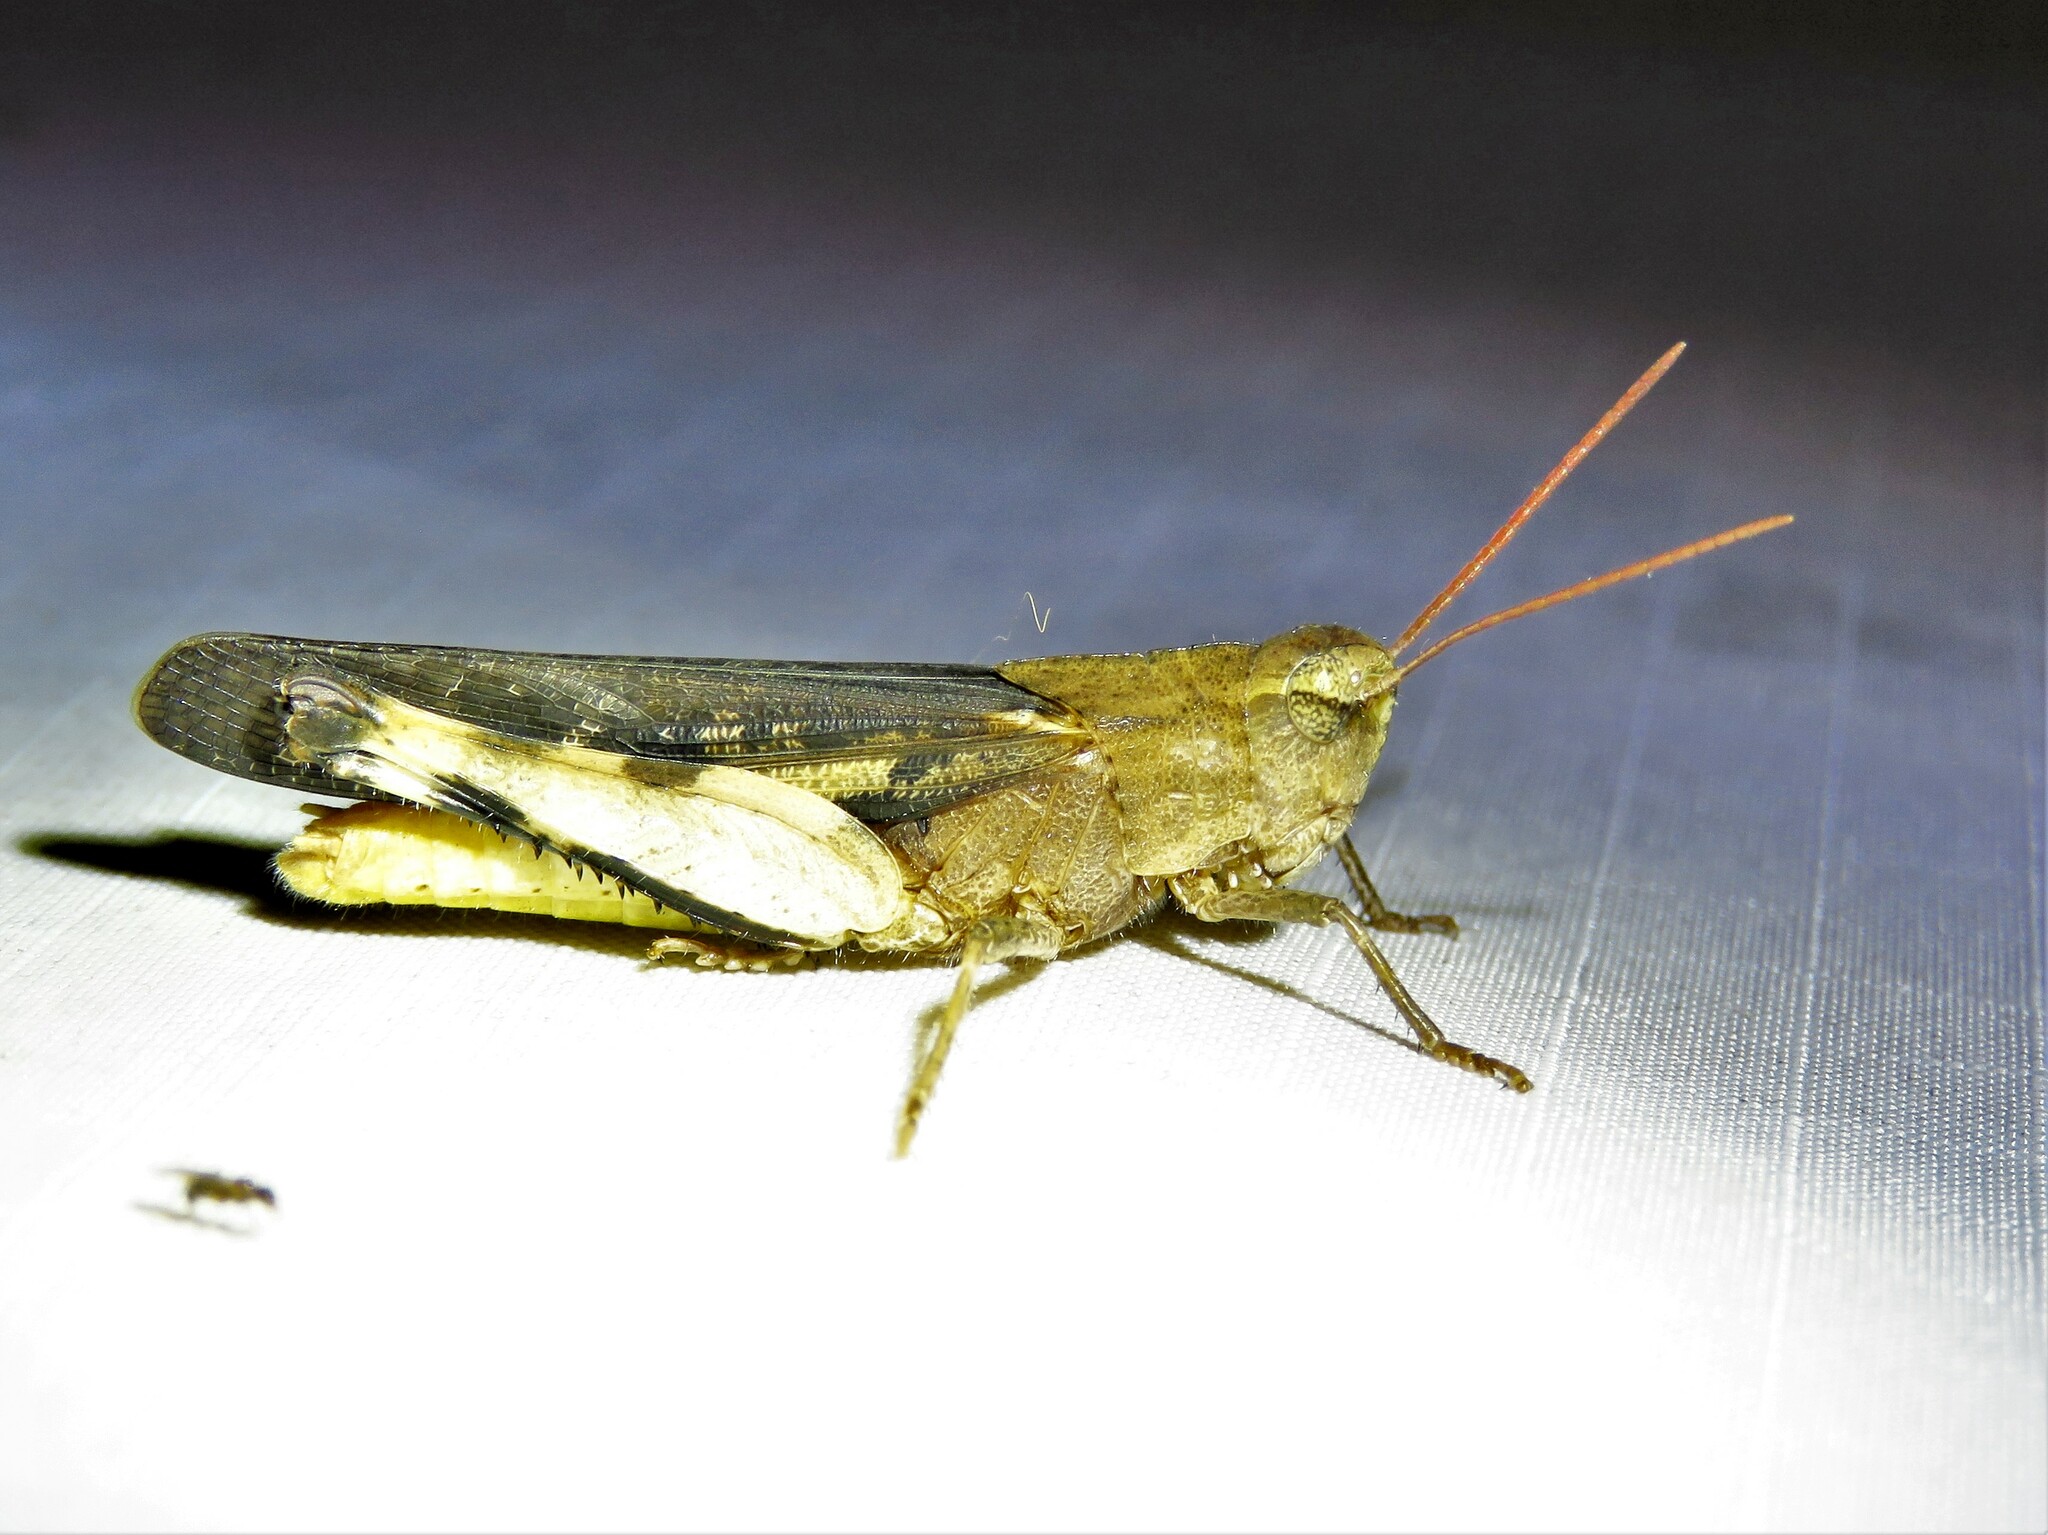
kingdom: Animalia
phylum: Arthropoda
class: Insecta
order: Orthoptera
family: Acrididae
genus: Chortophaga
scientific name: Chortophaga viridifasciata
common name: Green-striped grasshopper
